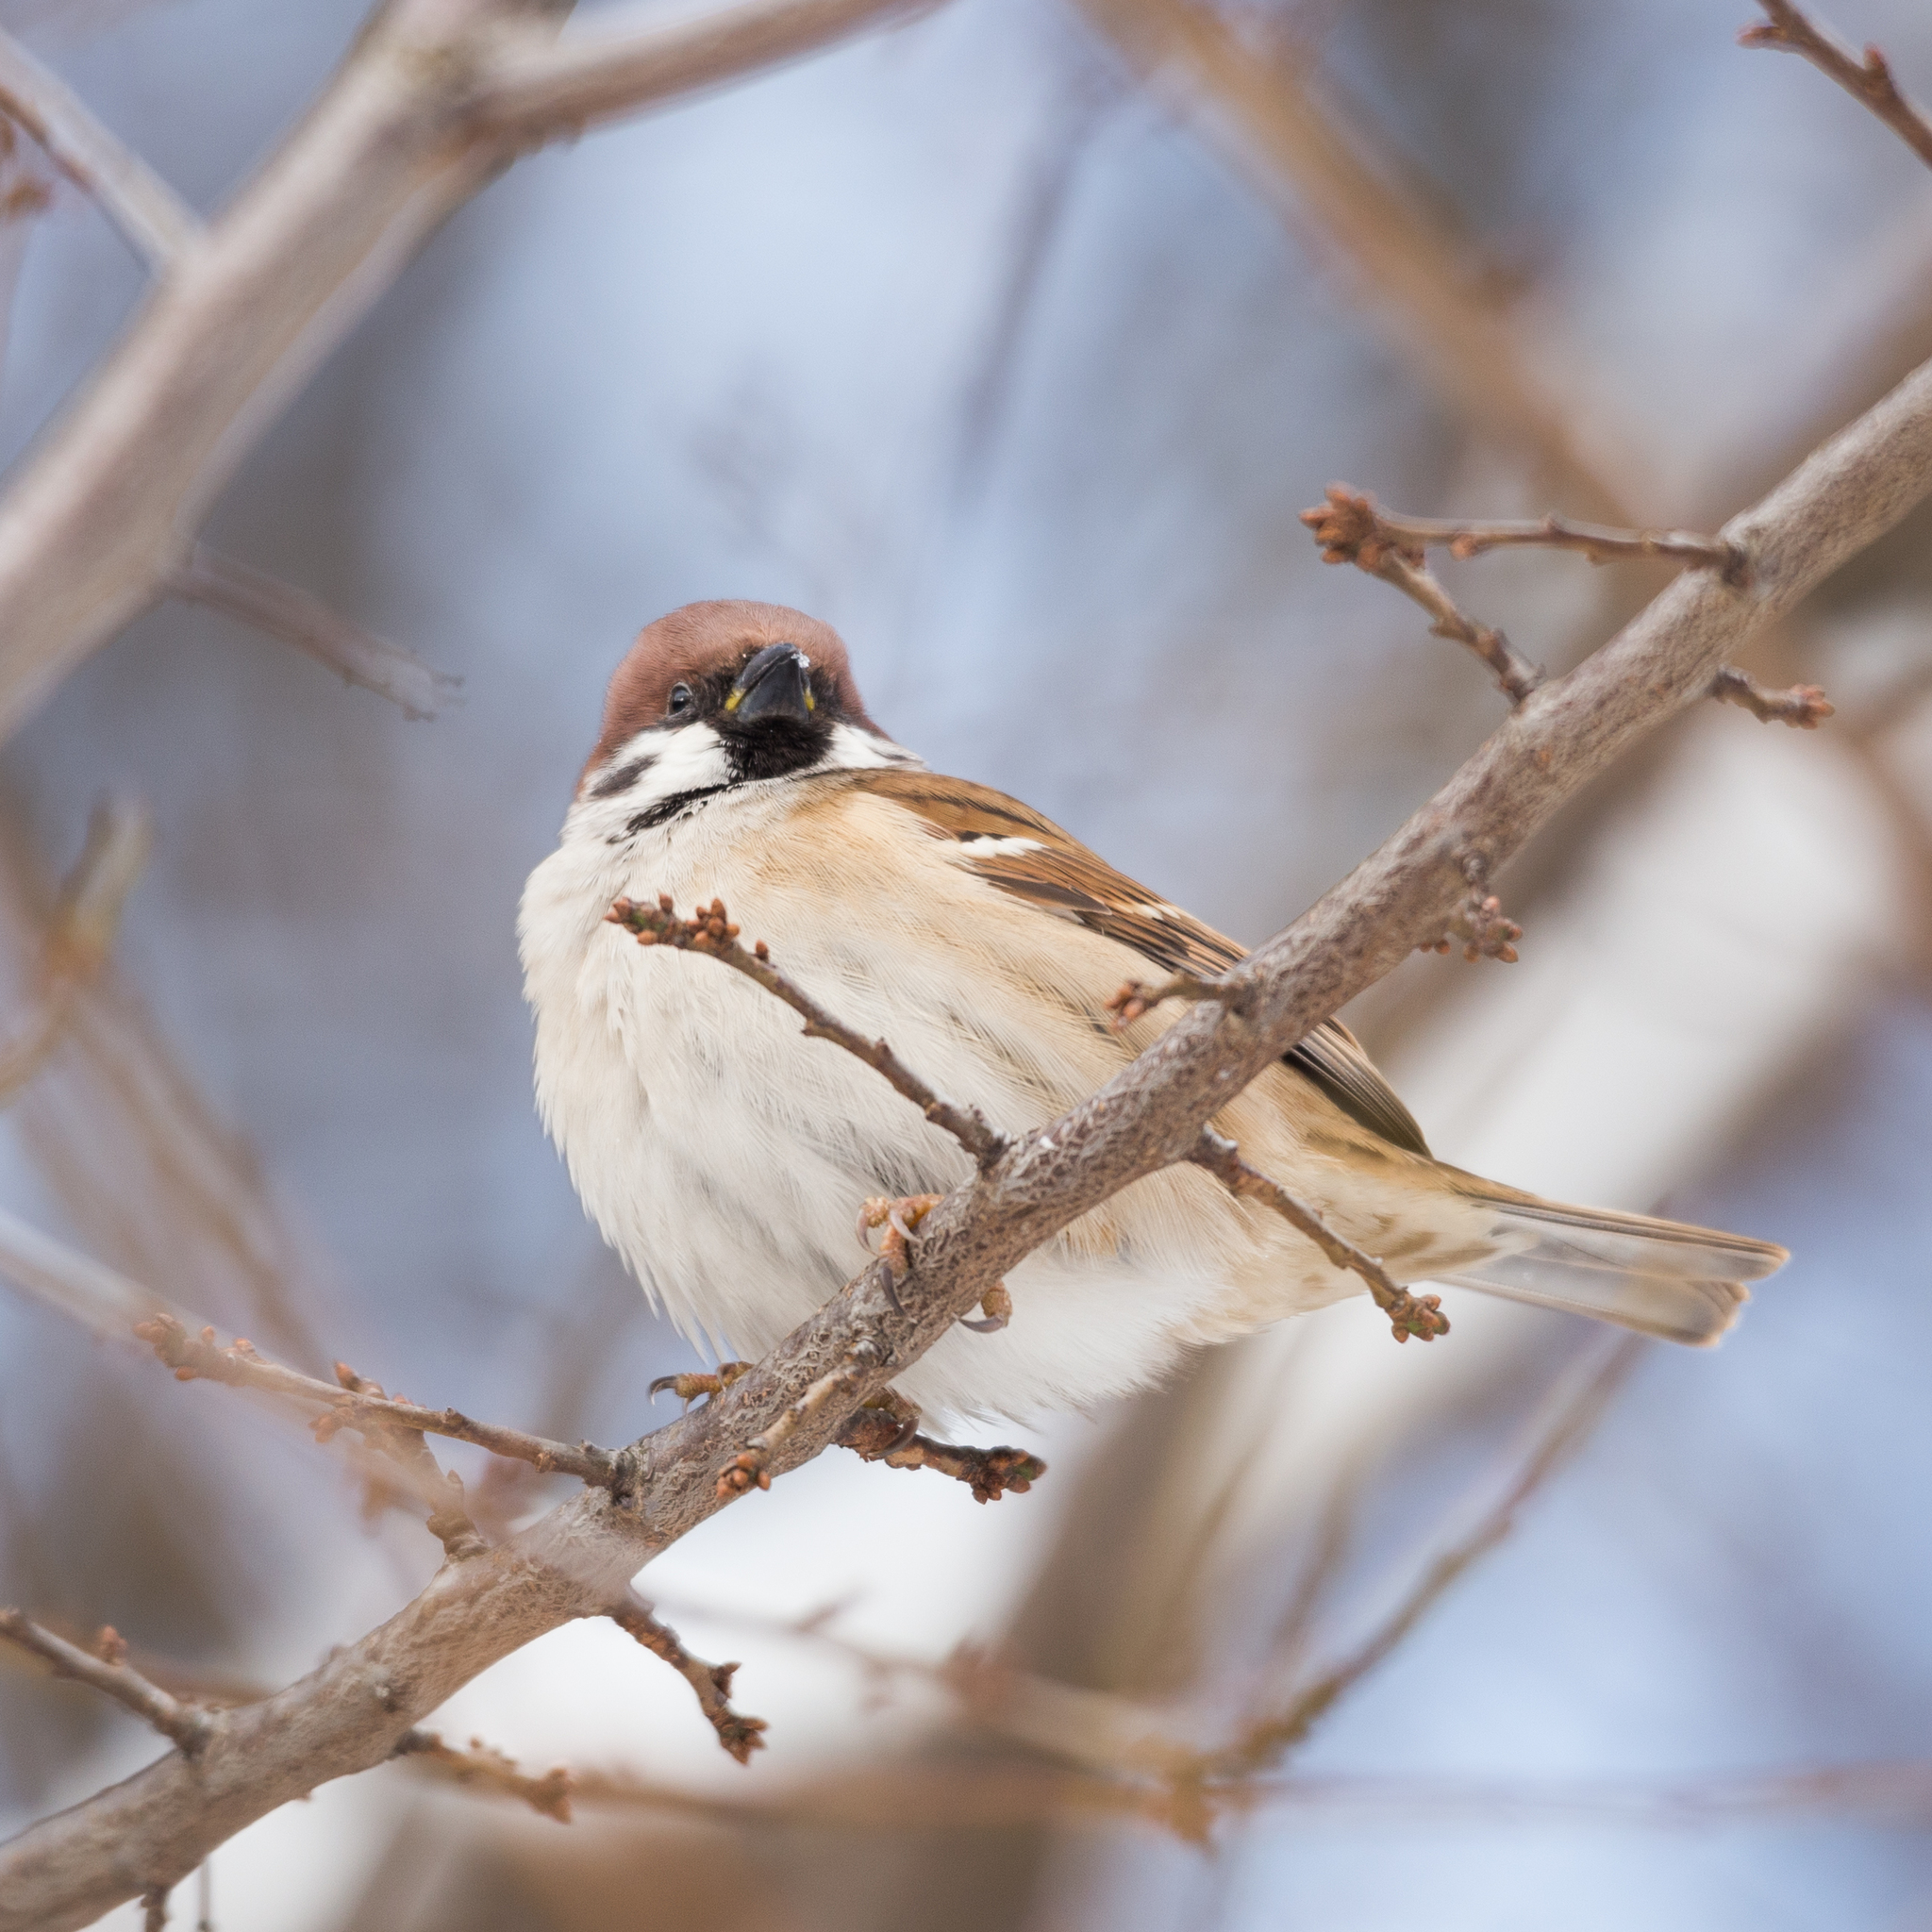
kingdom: Animalia
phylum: Chordata
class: Aves
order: Passeriformes
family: Passeridae
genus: Passer
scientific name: Passer montanus
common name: Eurasian tree sparrow
